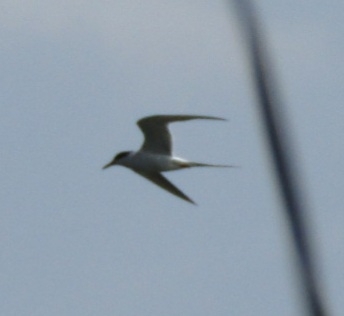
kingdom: Animalia
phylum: Chordata
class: Aves
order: Charadriiformes
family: Laridae
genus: Sterna
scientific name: Sterna forsteri
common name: Forster's tern
